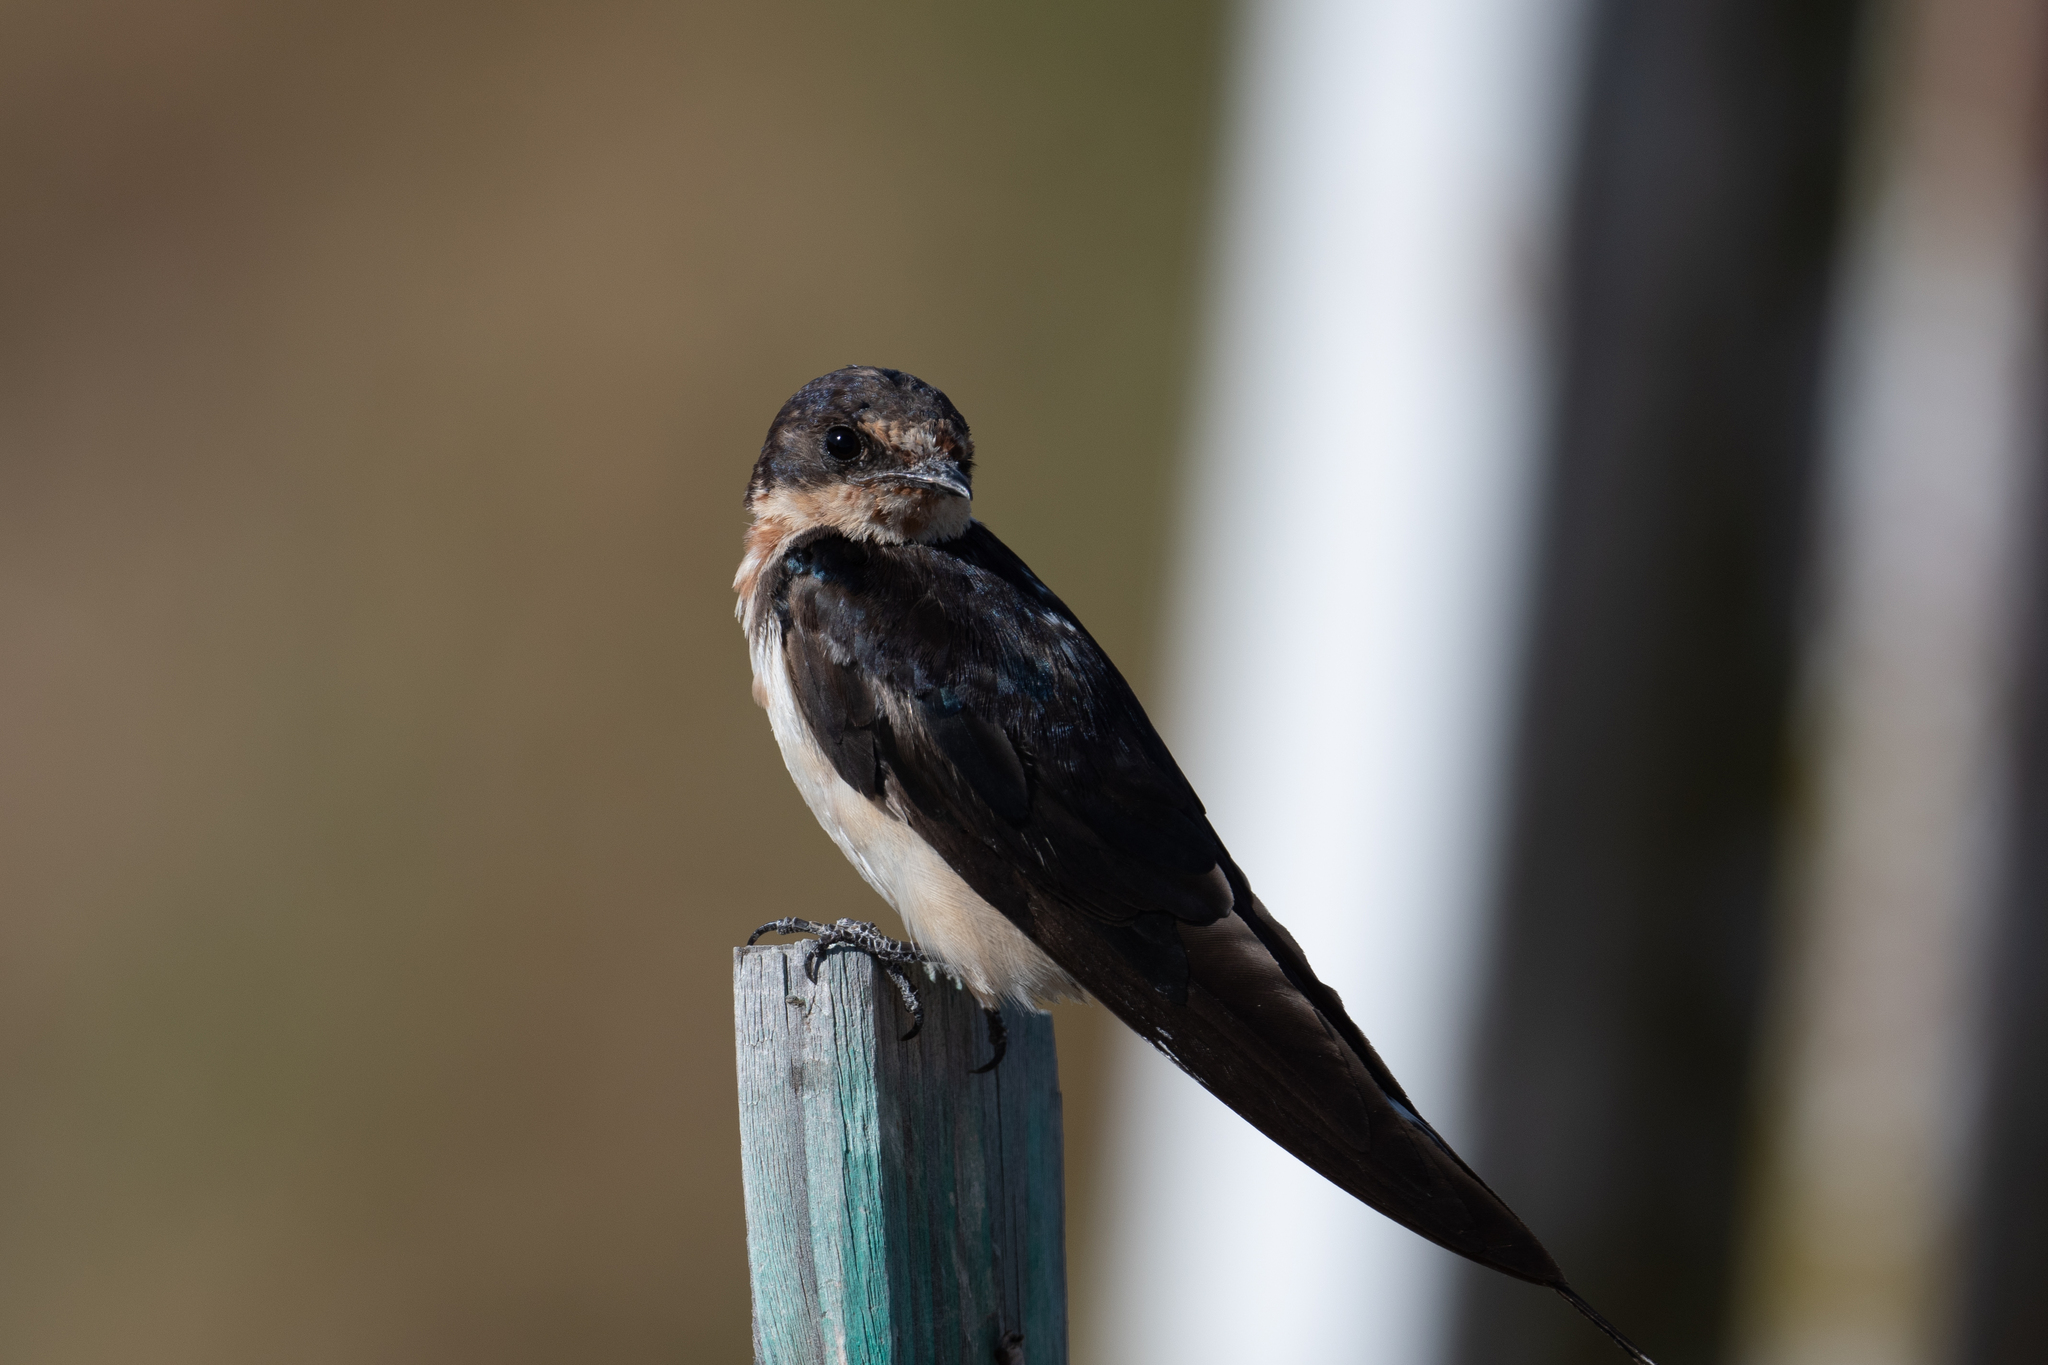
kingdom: Animalia
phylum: Chordata
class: Aves
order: Passeriformes
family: Hirundinidae
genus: Hirundo
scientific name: Hirundo rustica
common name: Barn swallow
